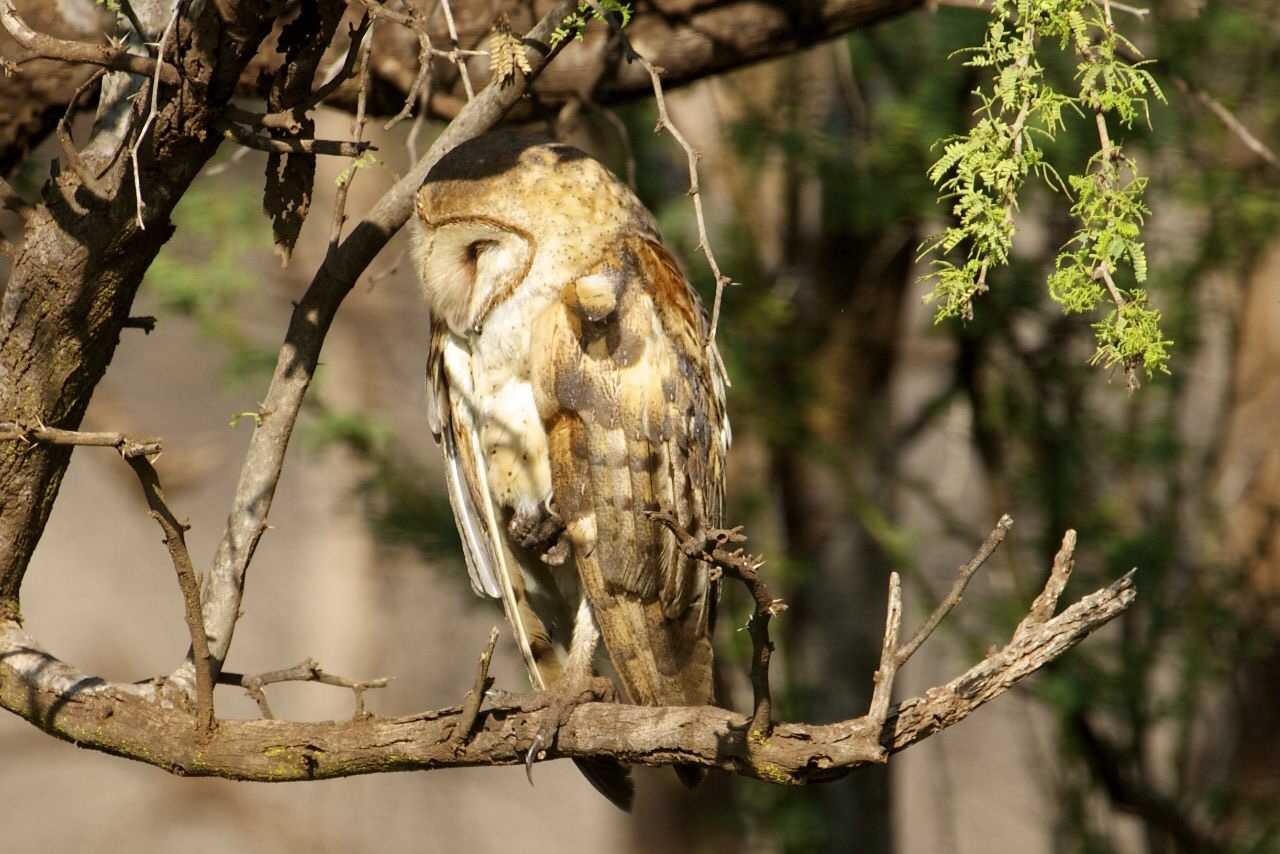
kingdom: Animalia
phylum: Chordata
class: Aves
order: Strigiformes
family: Tytonidae
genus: Tyto
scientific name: Tyto alba
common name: Barn owl
